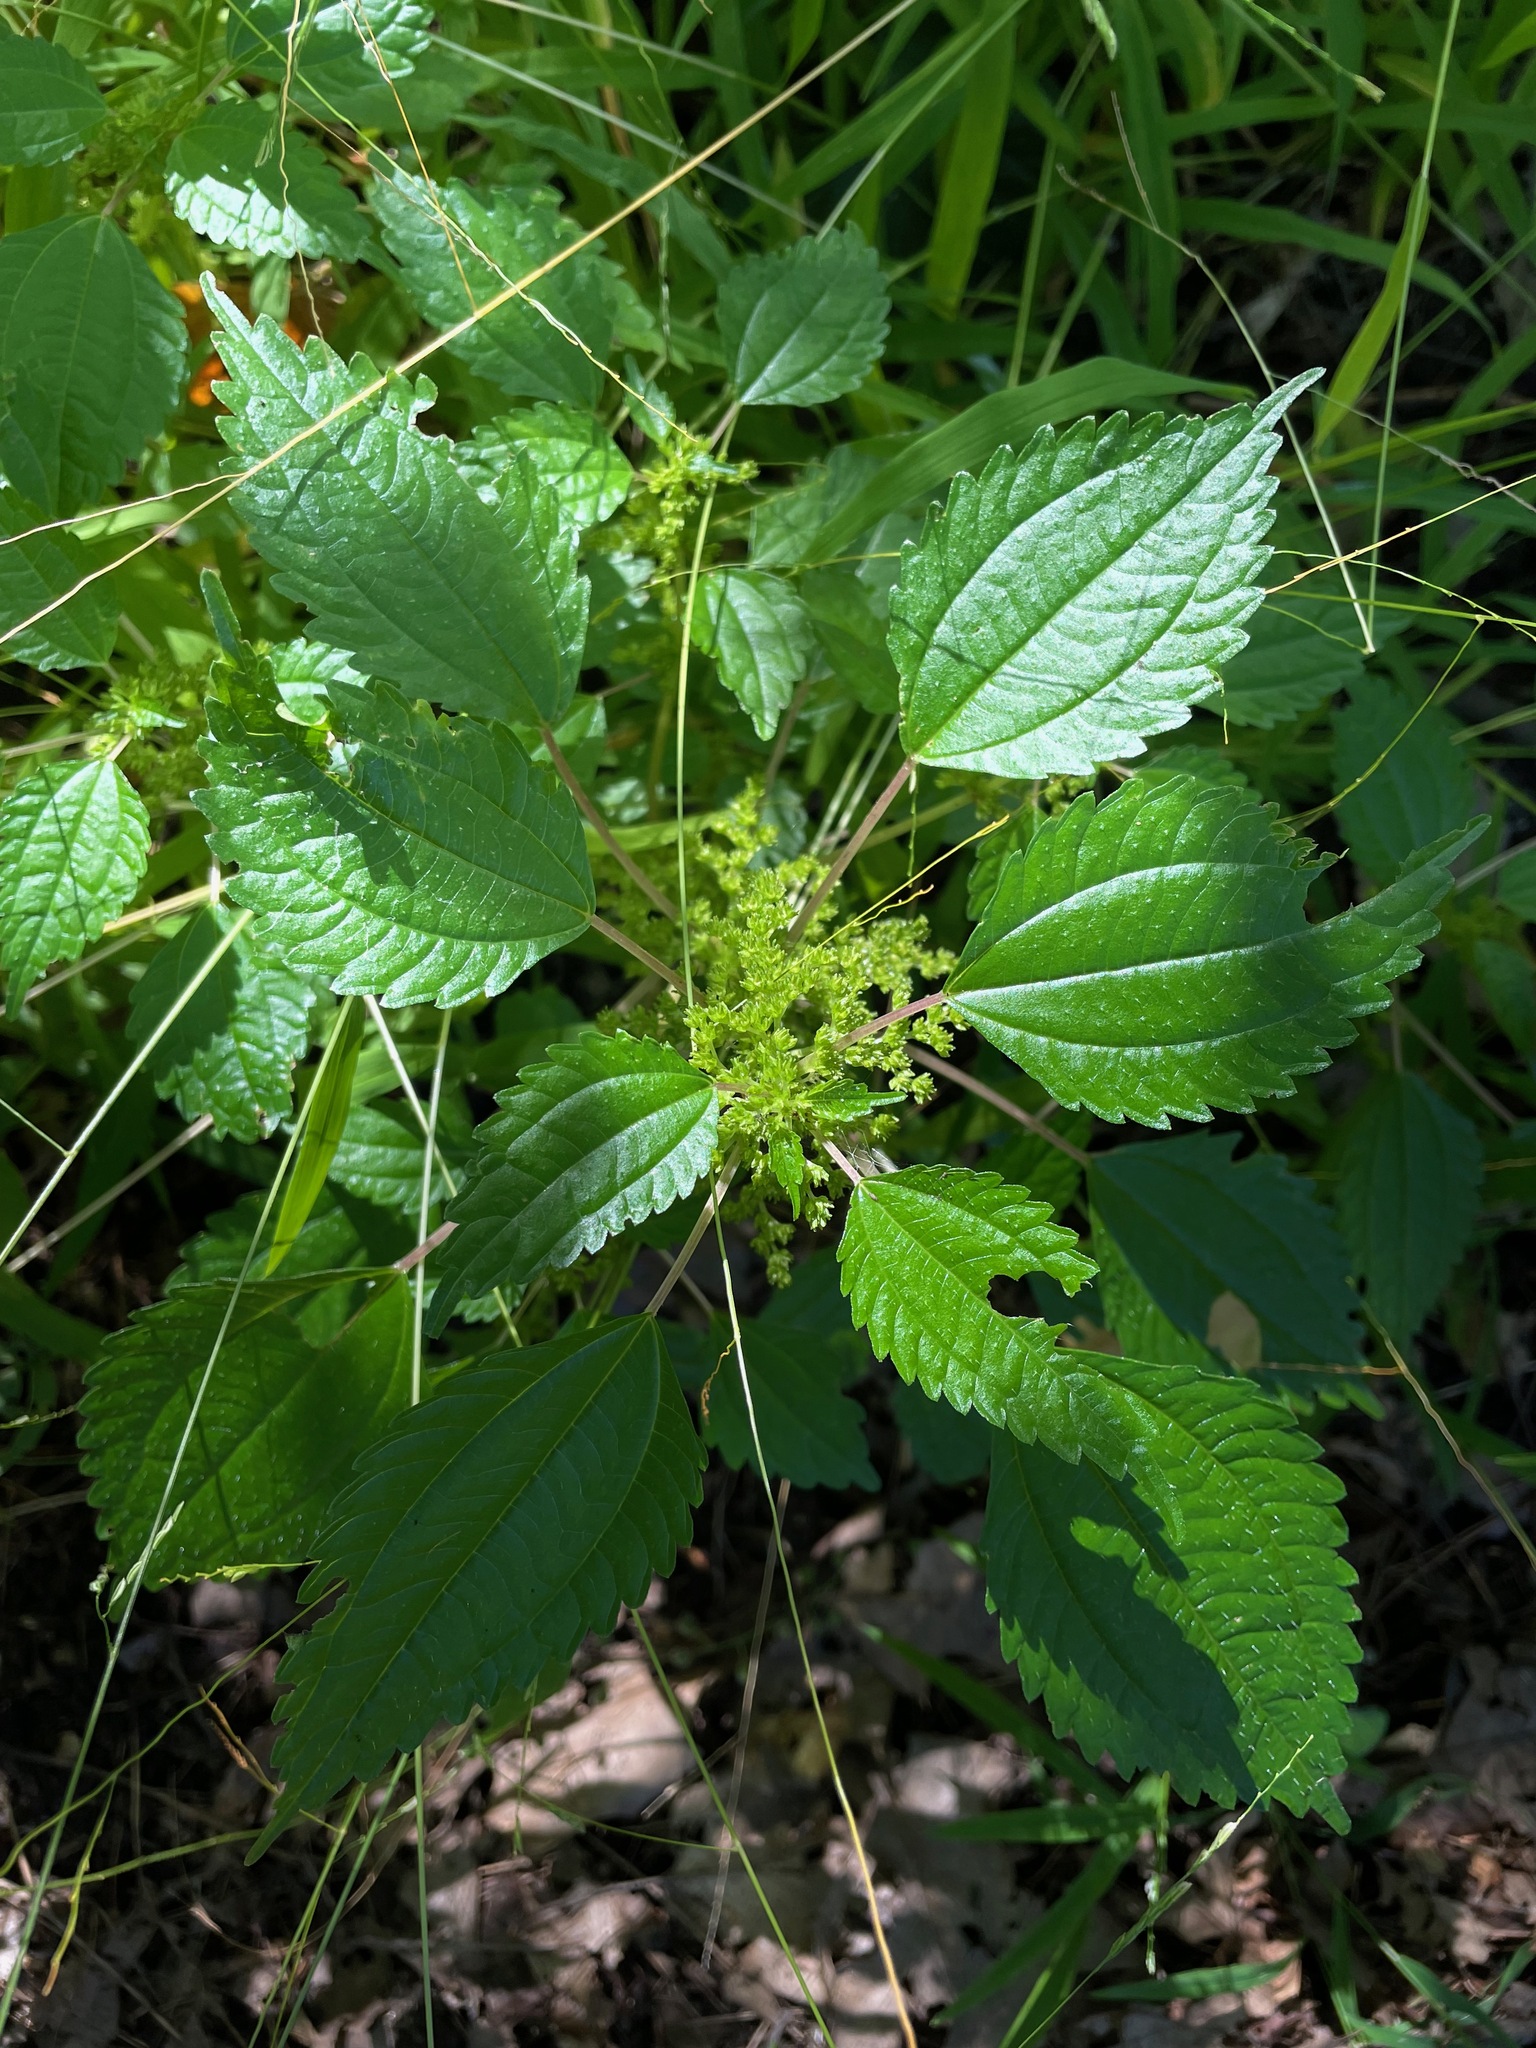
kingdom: Plantae
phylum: Tracheophyta
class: Magnoliopsida
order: Rosales
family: Urticaceae
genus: Pilea
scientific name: Pilea pumila
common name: Clearweed
